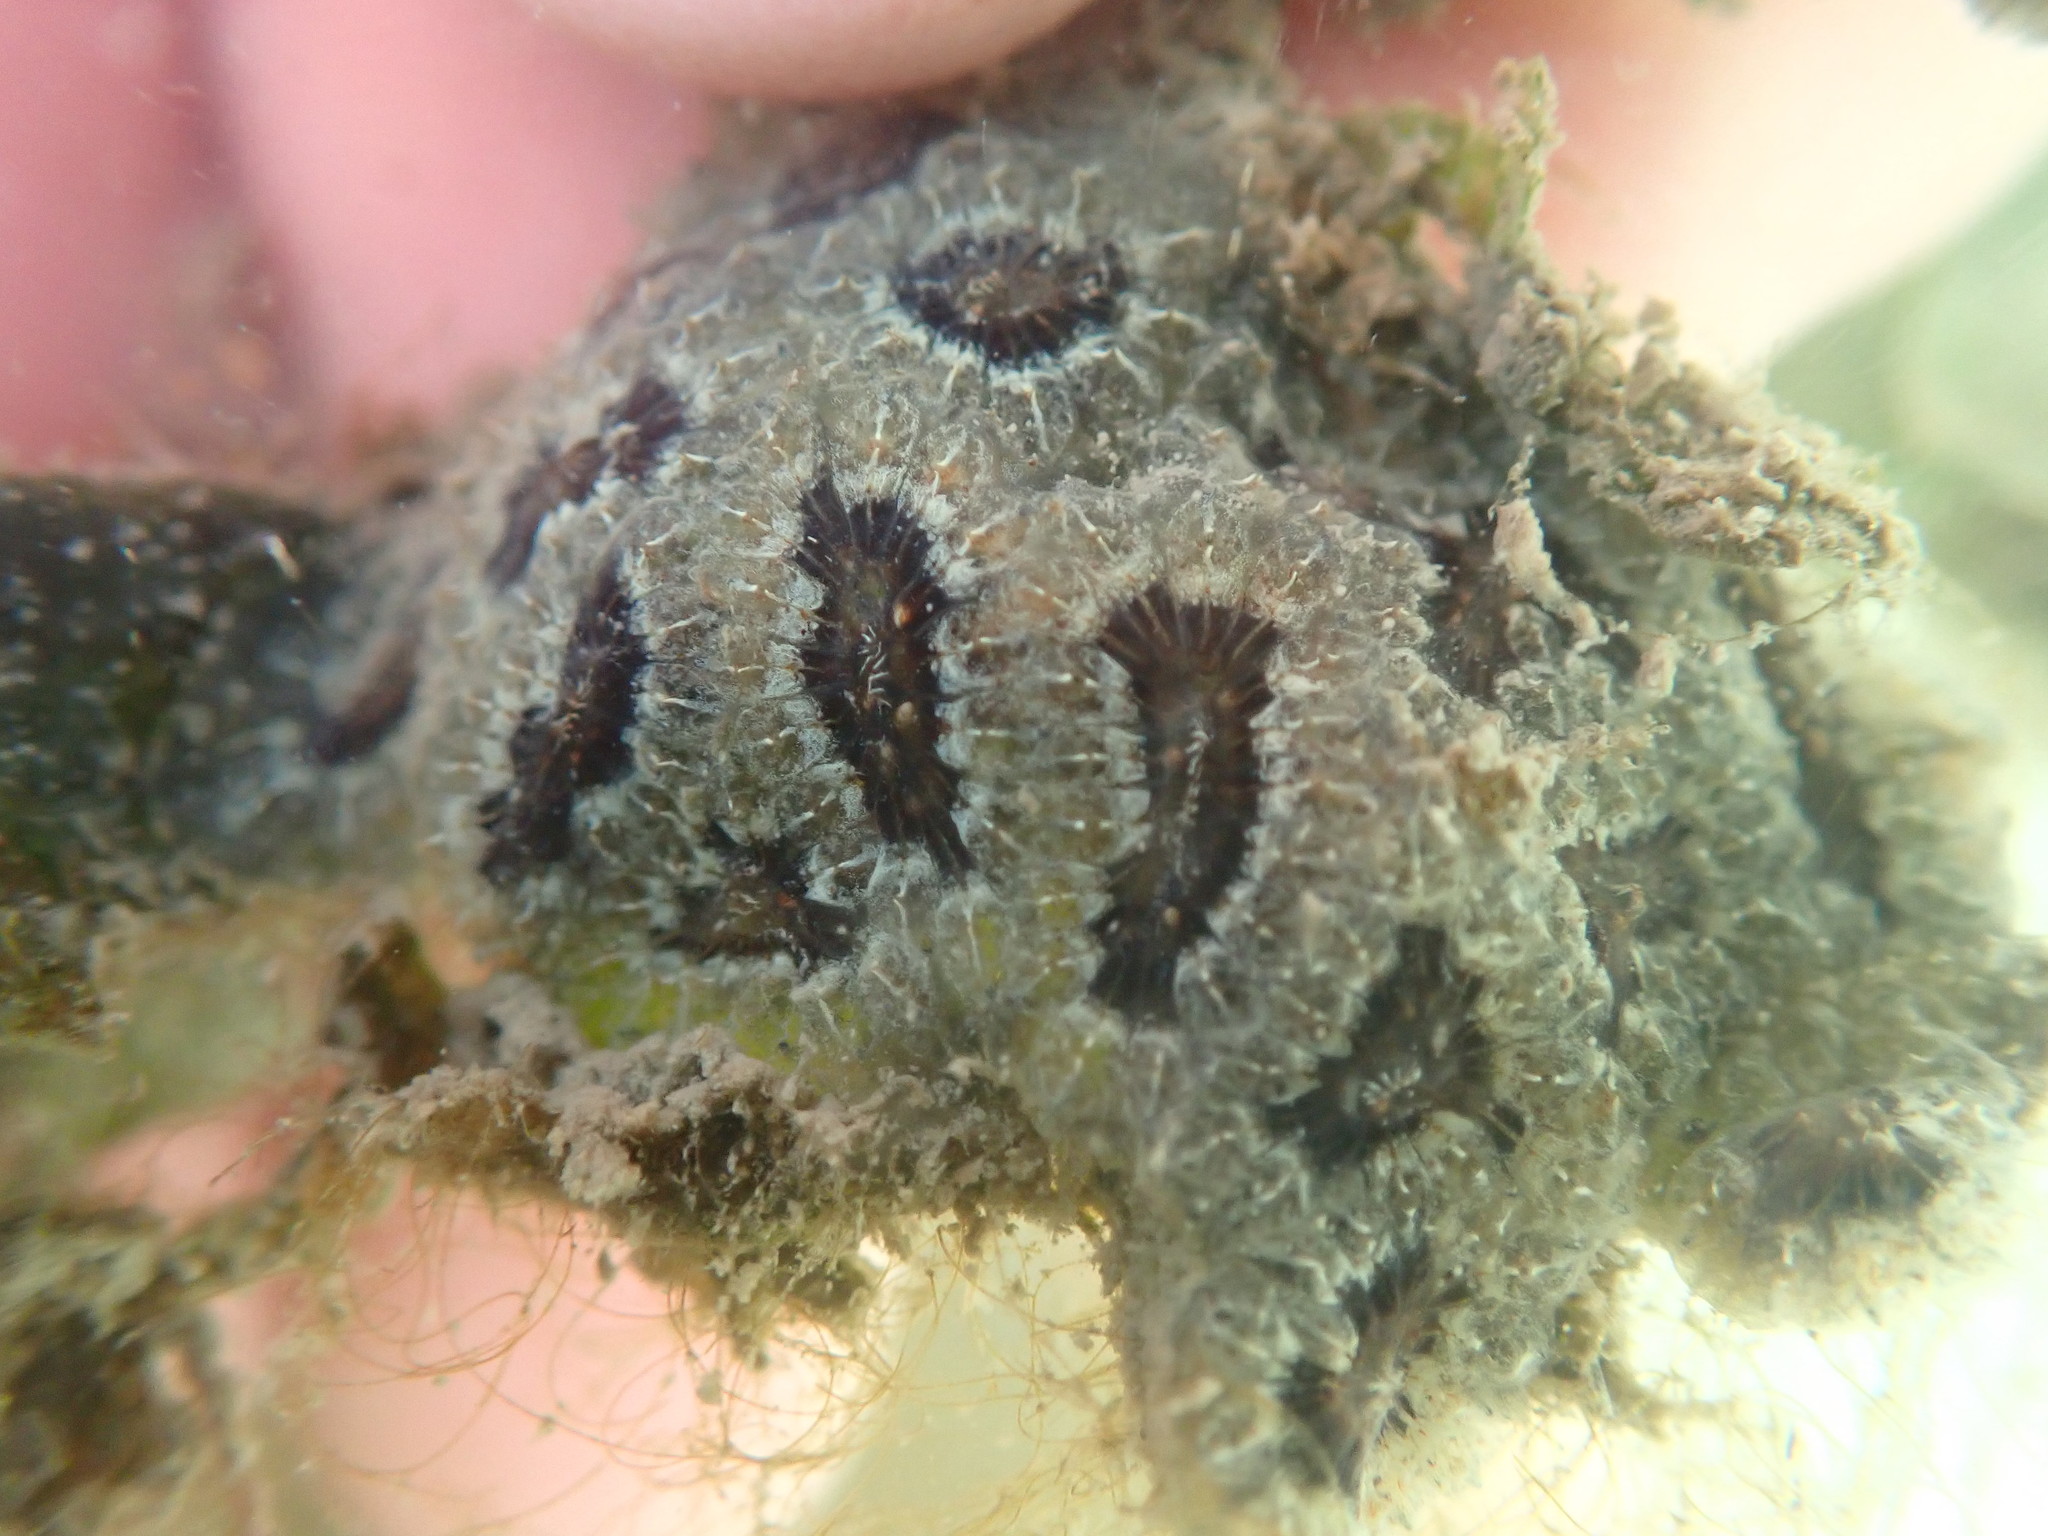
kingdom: Animalia
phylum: Chordata
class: Ascidiacea
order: Stolidobranchia
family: Styelidae
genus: Botryllus
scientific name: Botryllus schlosseri
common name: Golden star tunicate
